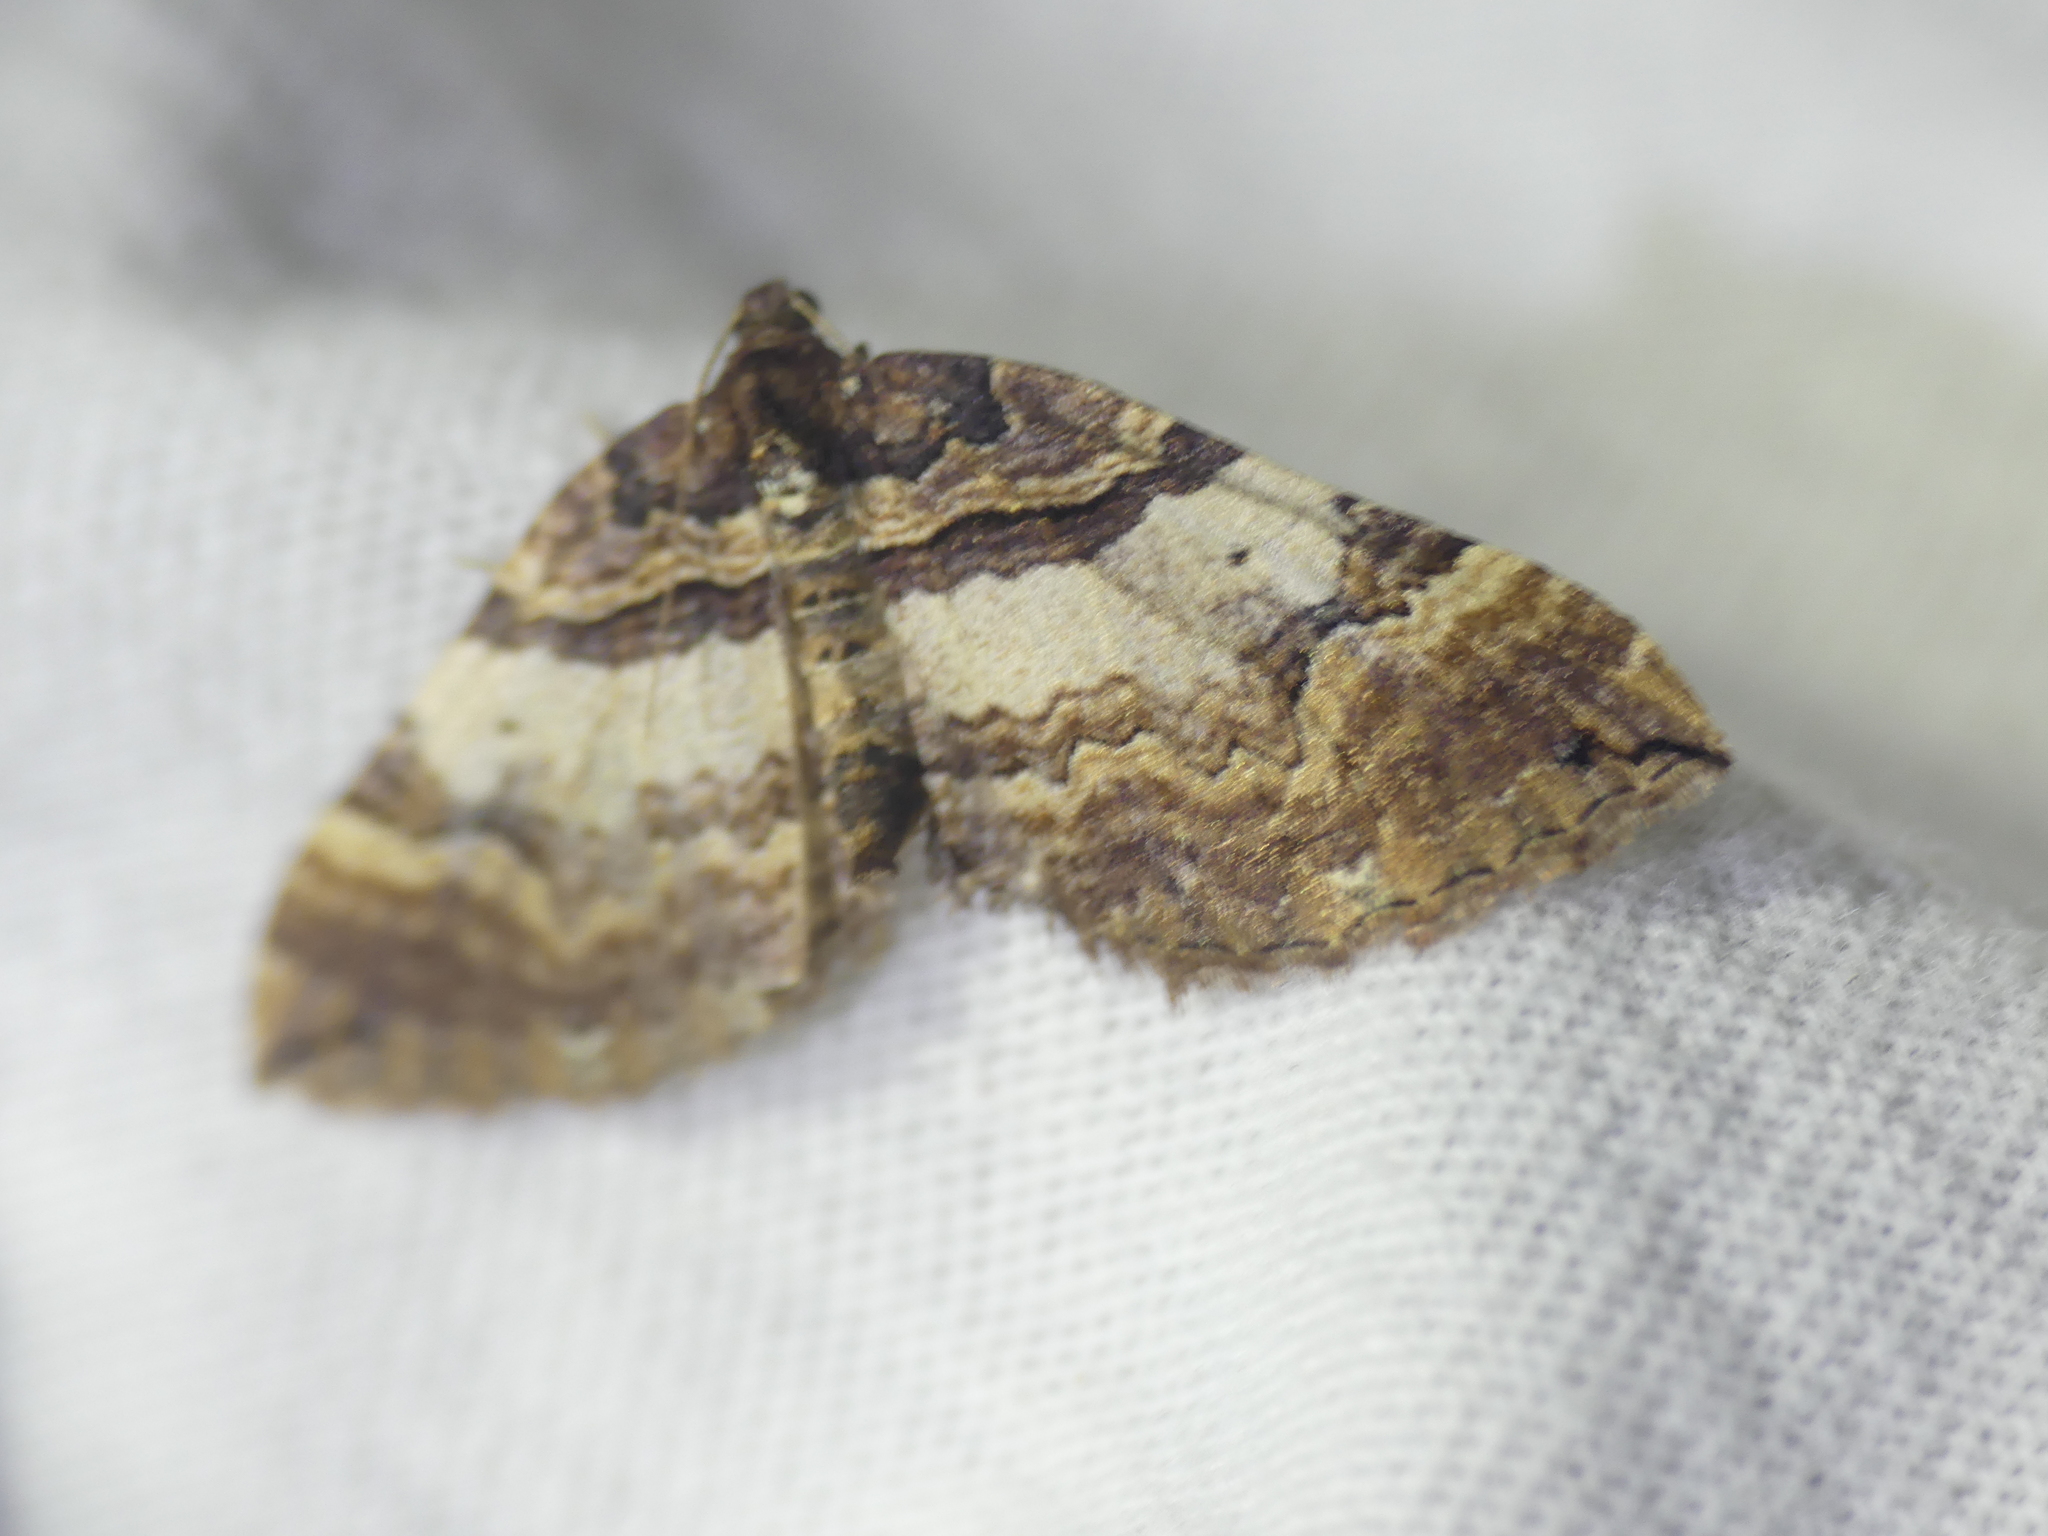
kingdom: Animalia
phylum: Arthropoda
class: Insecta
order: Lepidoptera
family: Geometridae
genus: Anticlea
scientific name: Anticlea badiata
